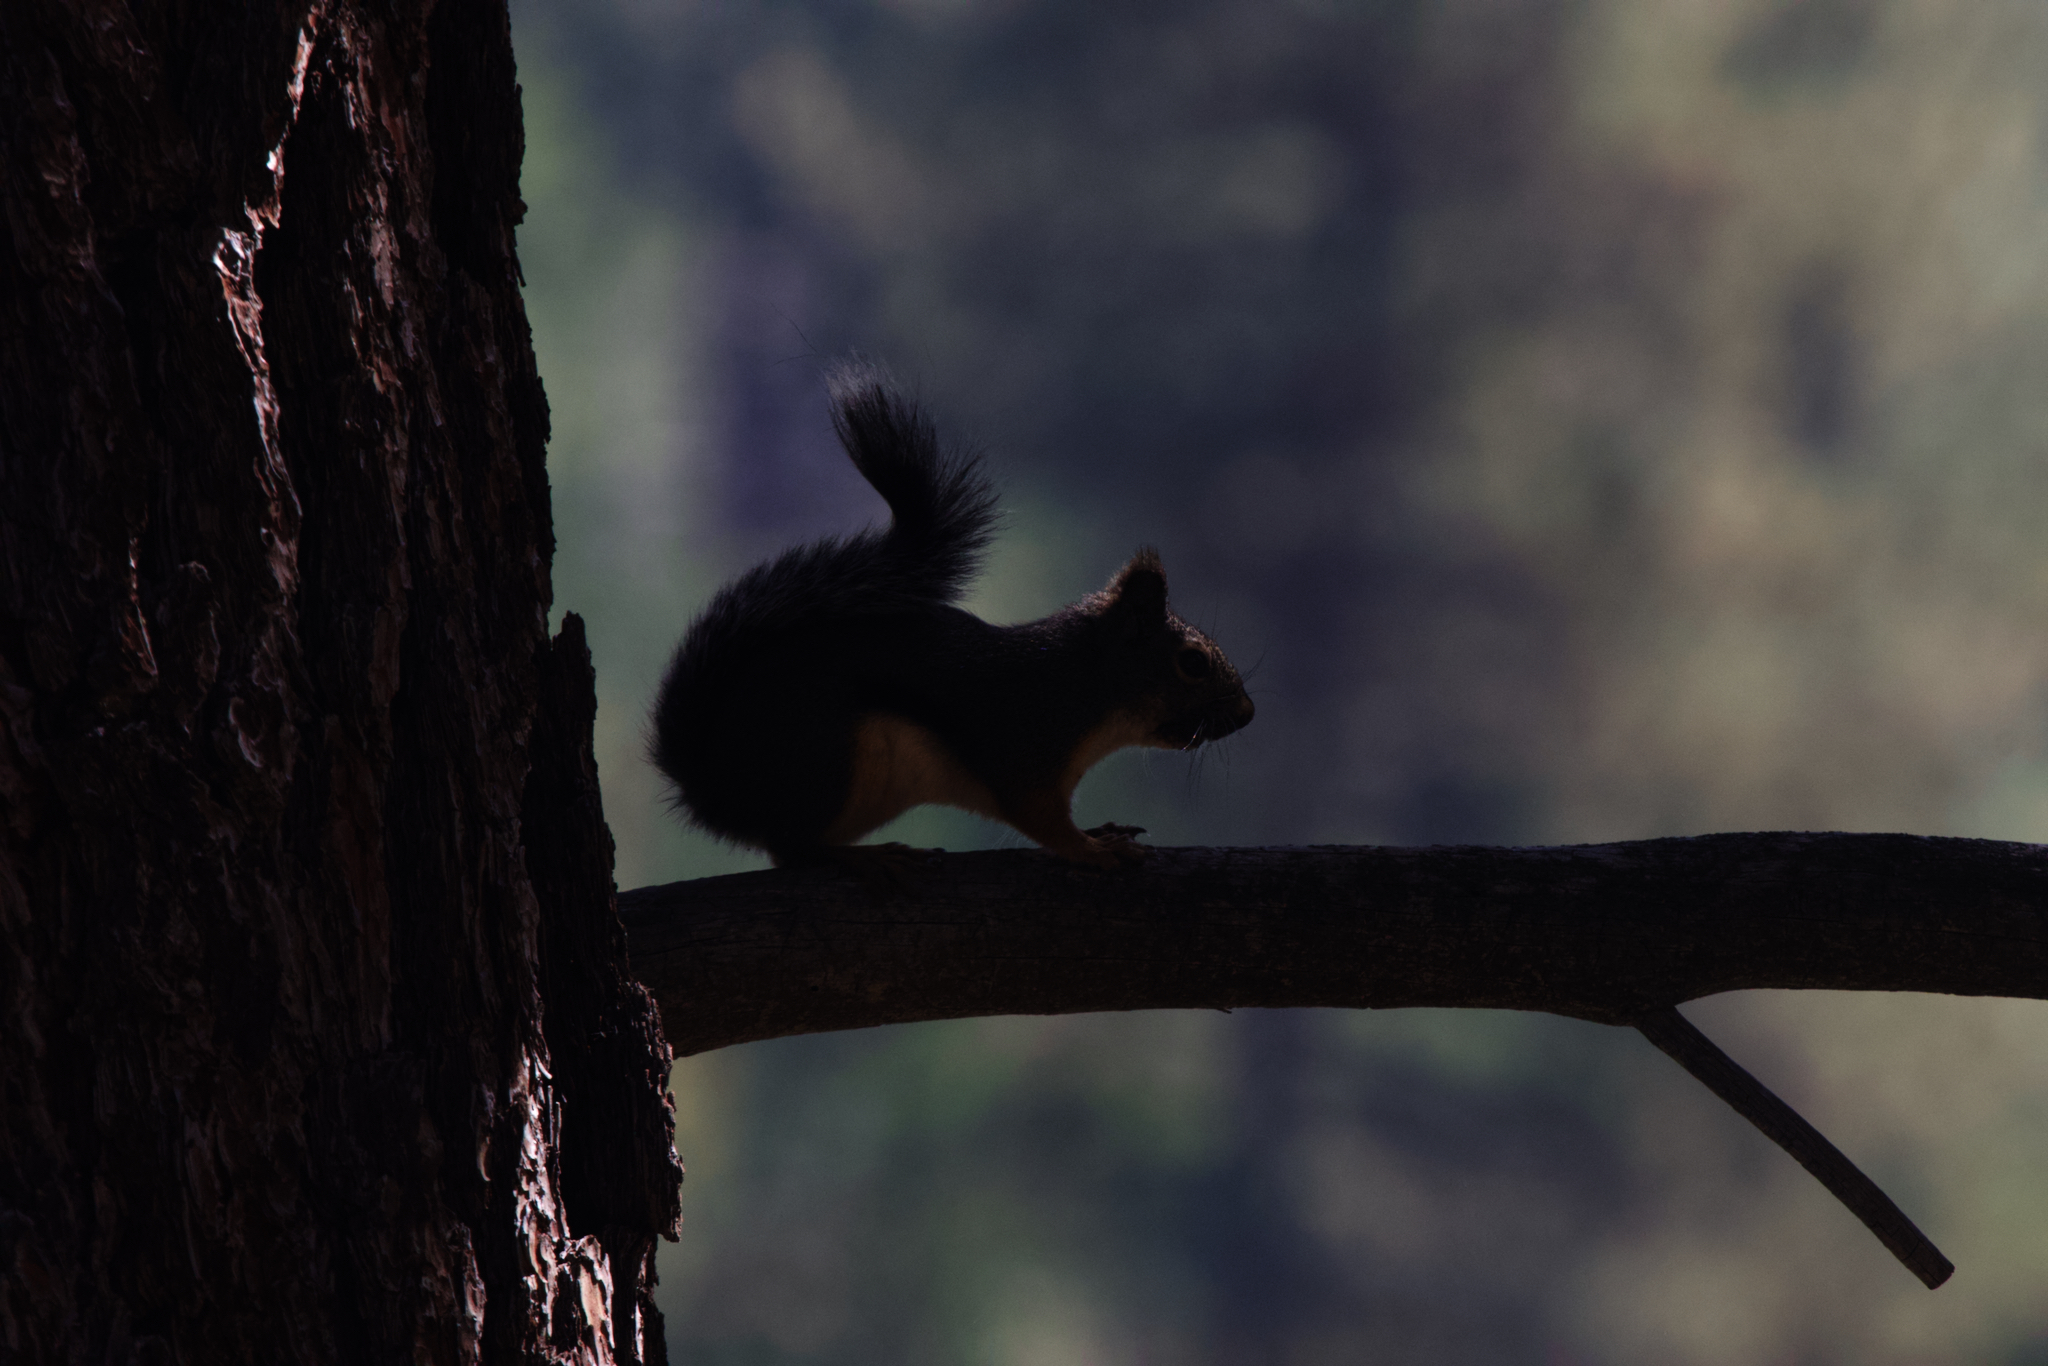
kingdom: Animalia
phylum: Chordata
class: Mammalia
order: Rodentia
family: Sciuridae
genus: Tamiasciurus
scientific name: Tamiasciurus douglasii
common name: Douglas's squirrel
